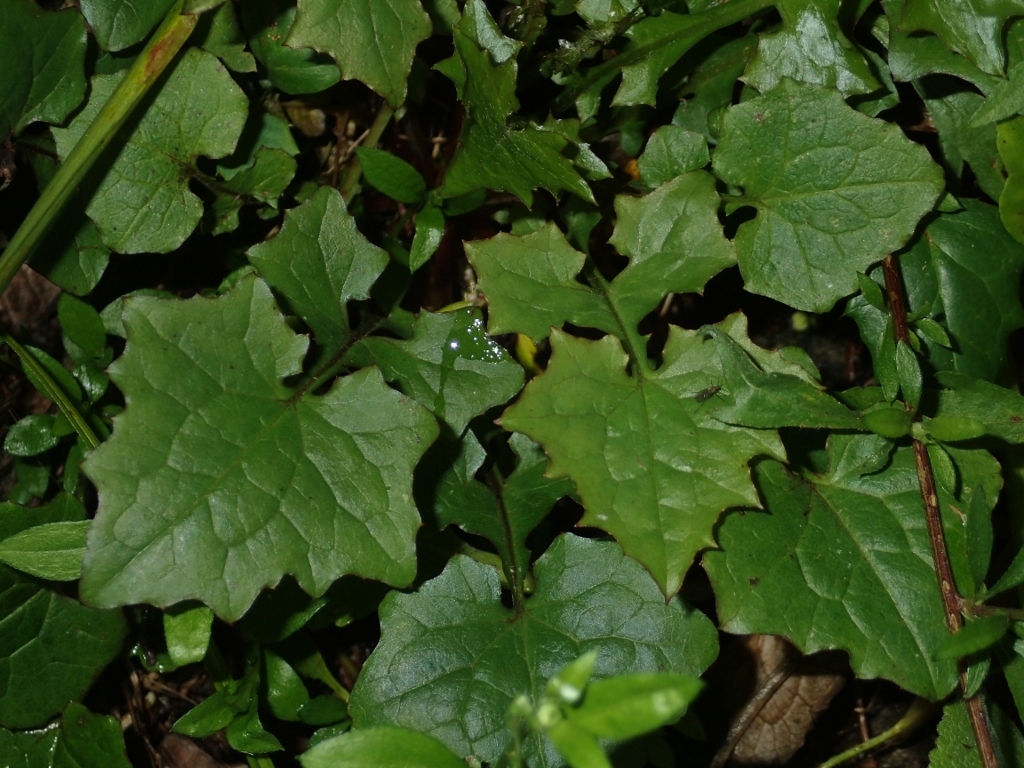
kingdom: Plantae
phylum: Tracheophyta
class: Magnoliopsida
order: Asterales
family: Asteraceae
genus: Mycelis
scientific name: Mycelis muralis
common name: Wall lettuce
